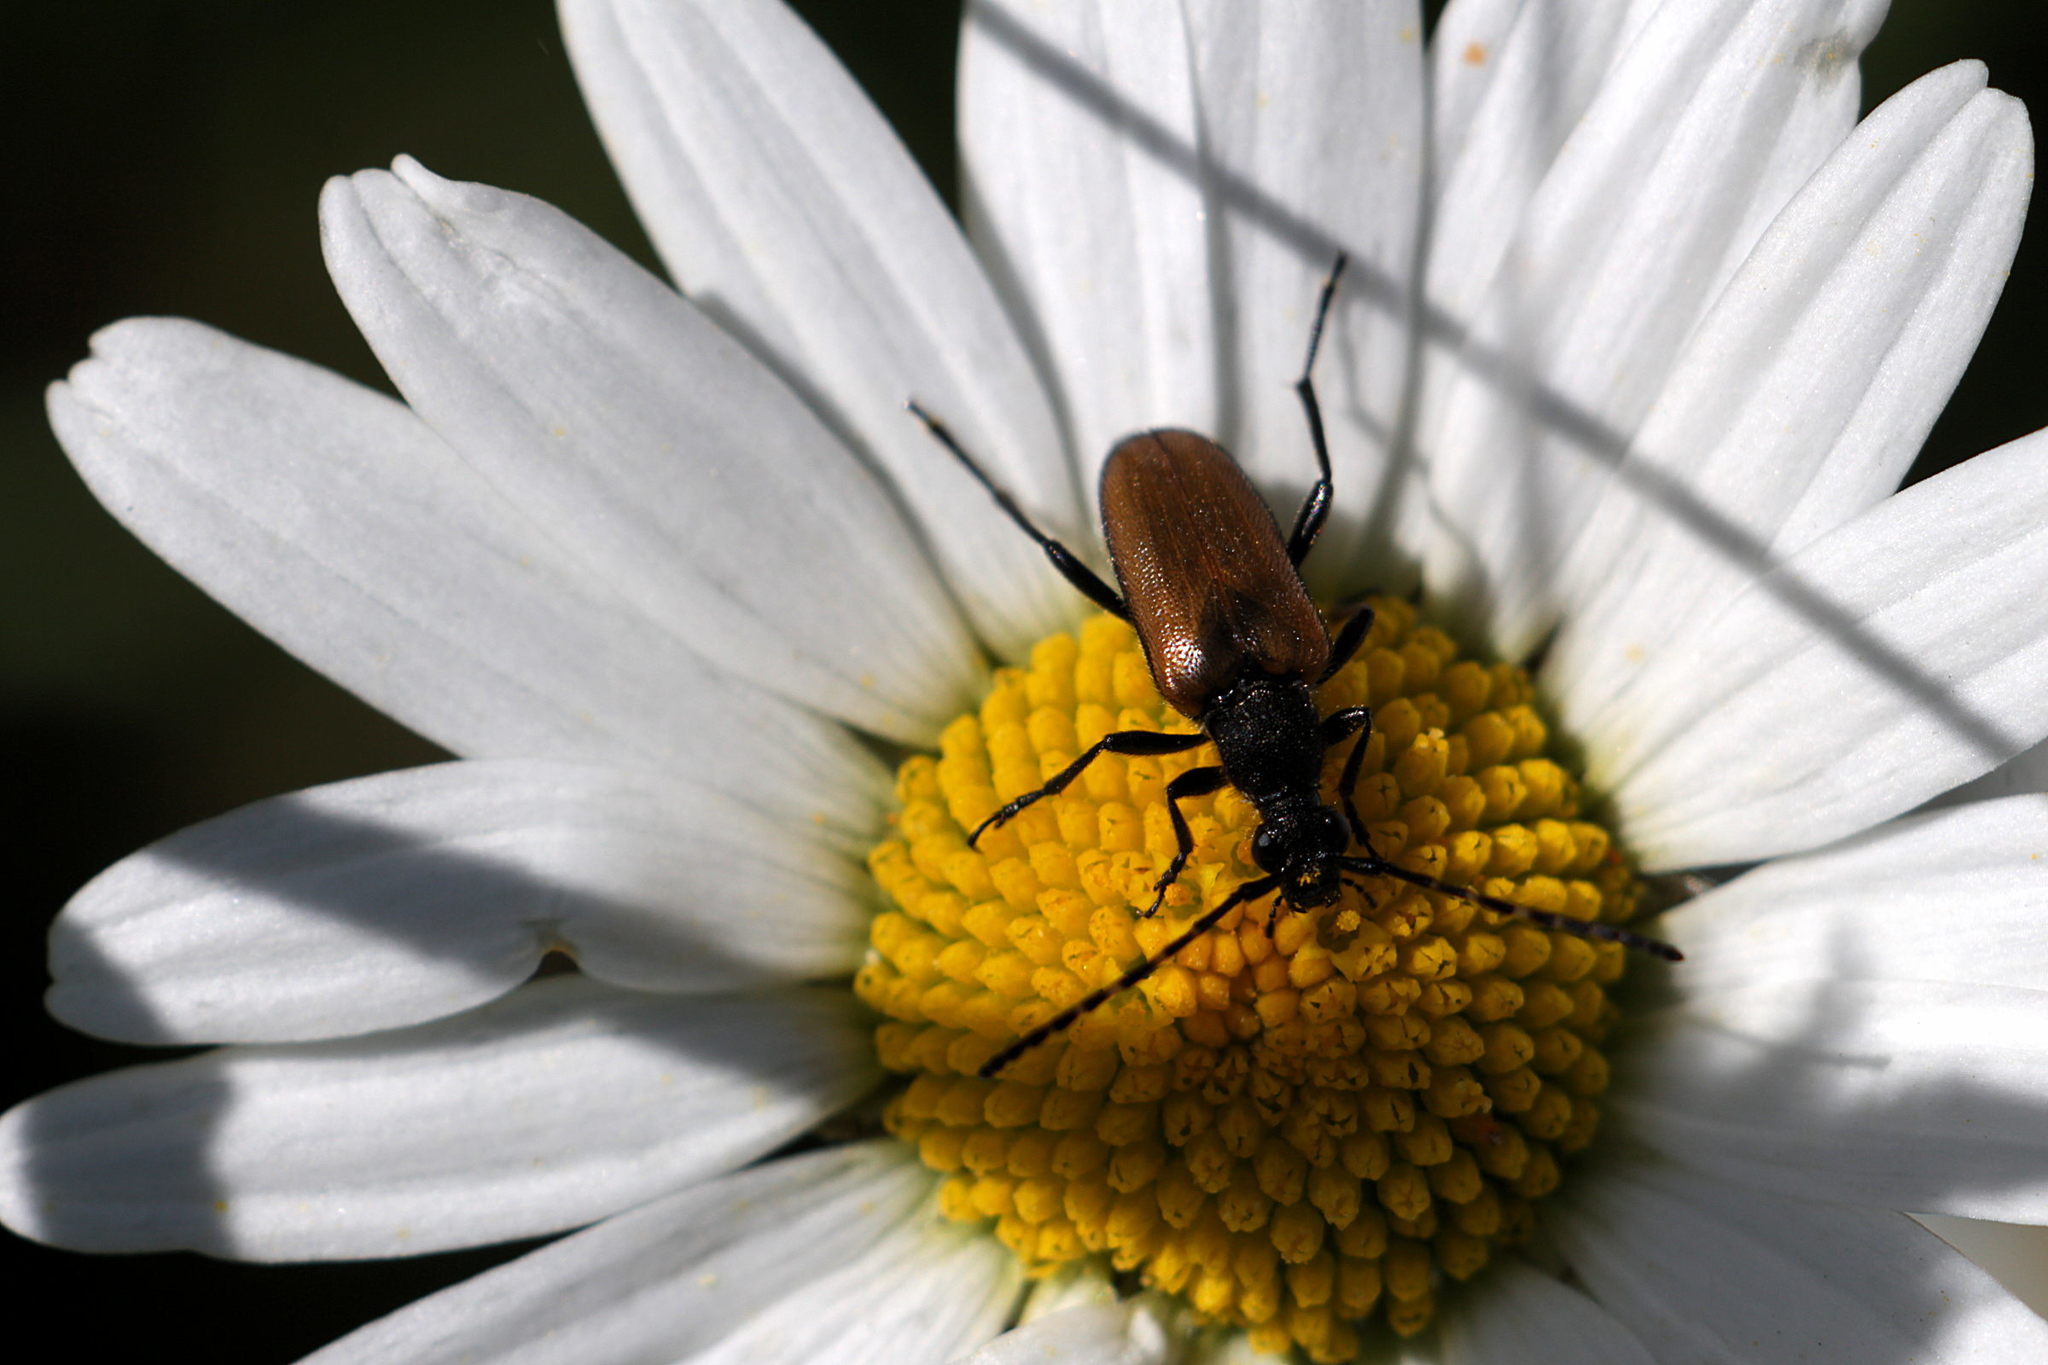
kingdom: Animalia
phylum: Arthropoda
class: Insecta
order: Coleoptera
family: Cerambycidae
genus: Paracorymbia
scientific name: Paracorymbia maculicornis
